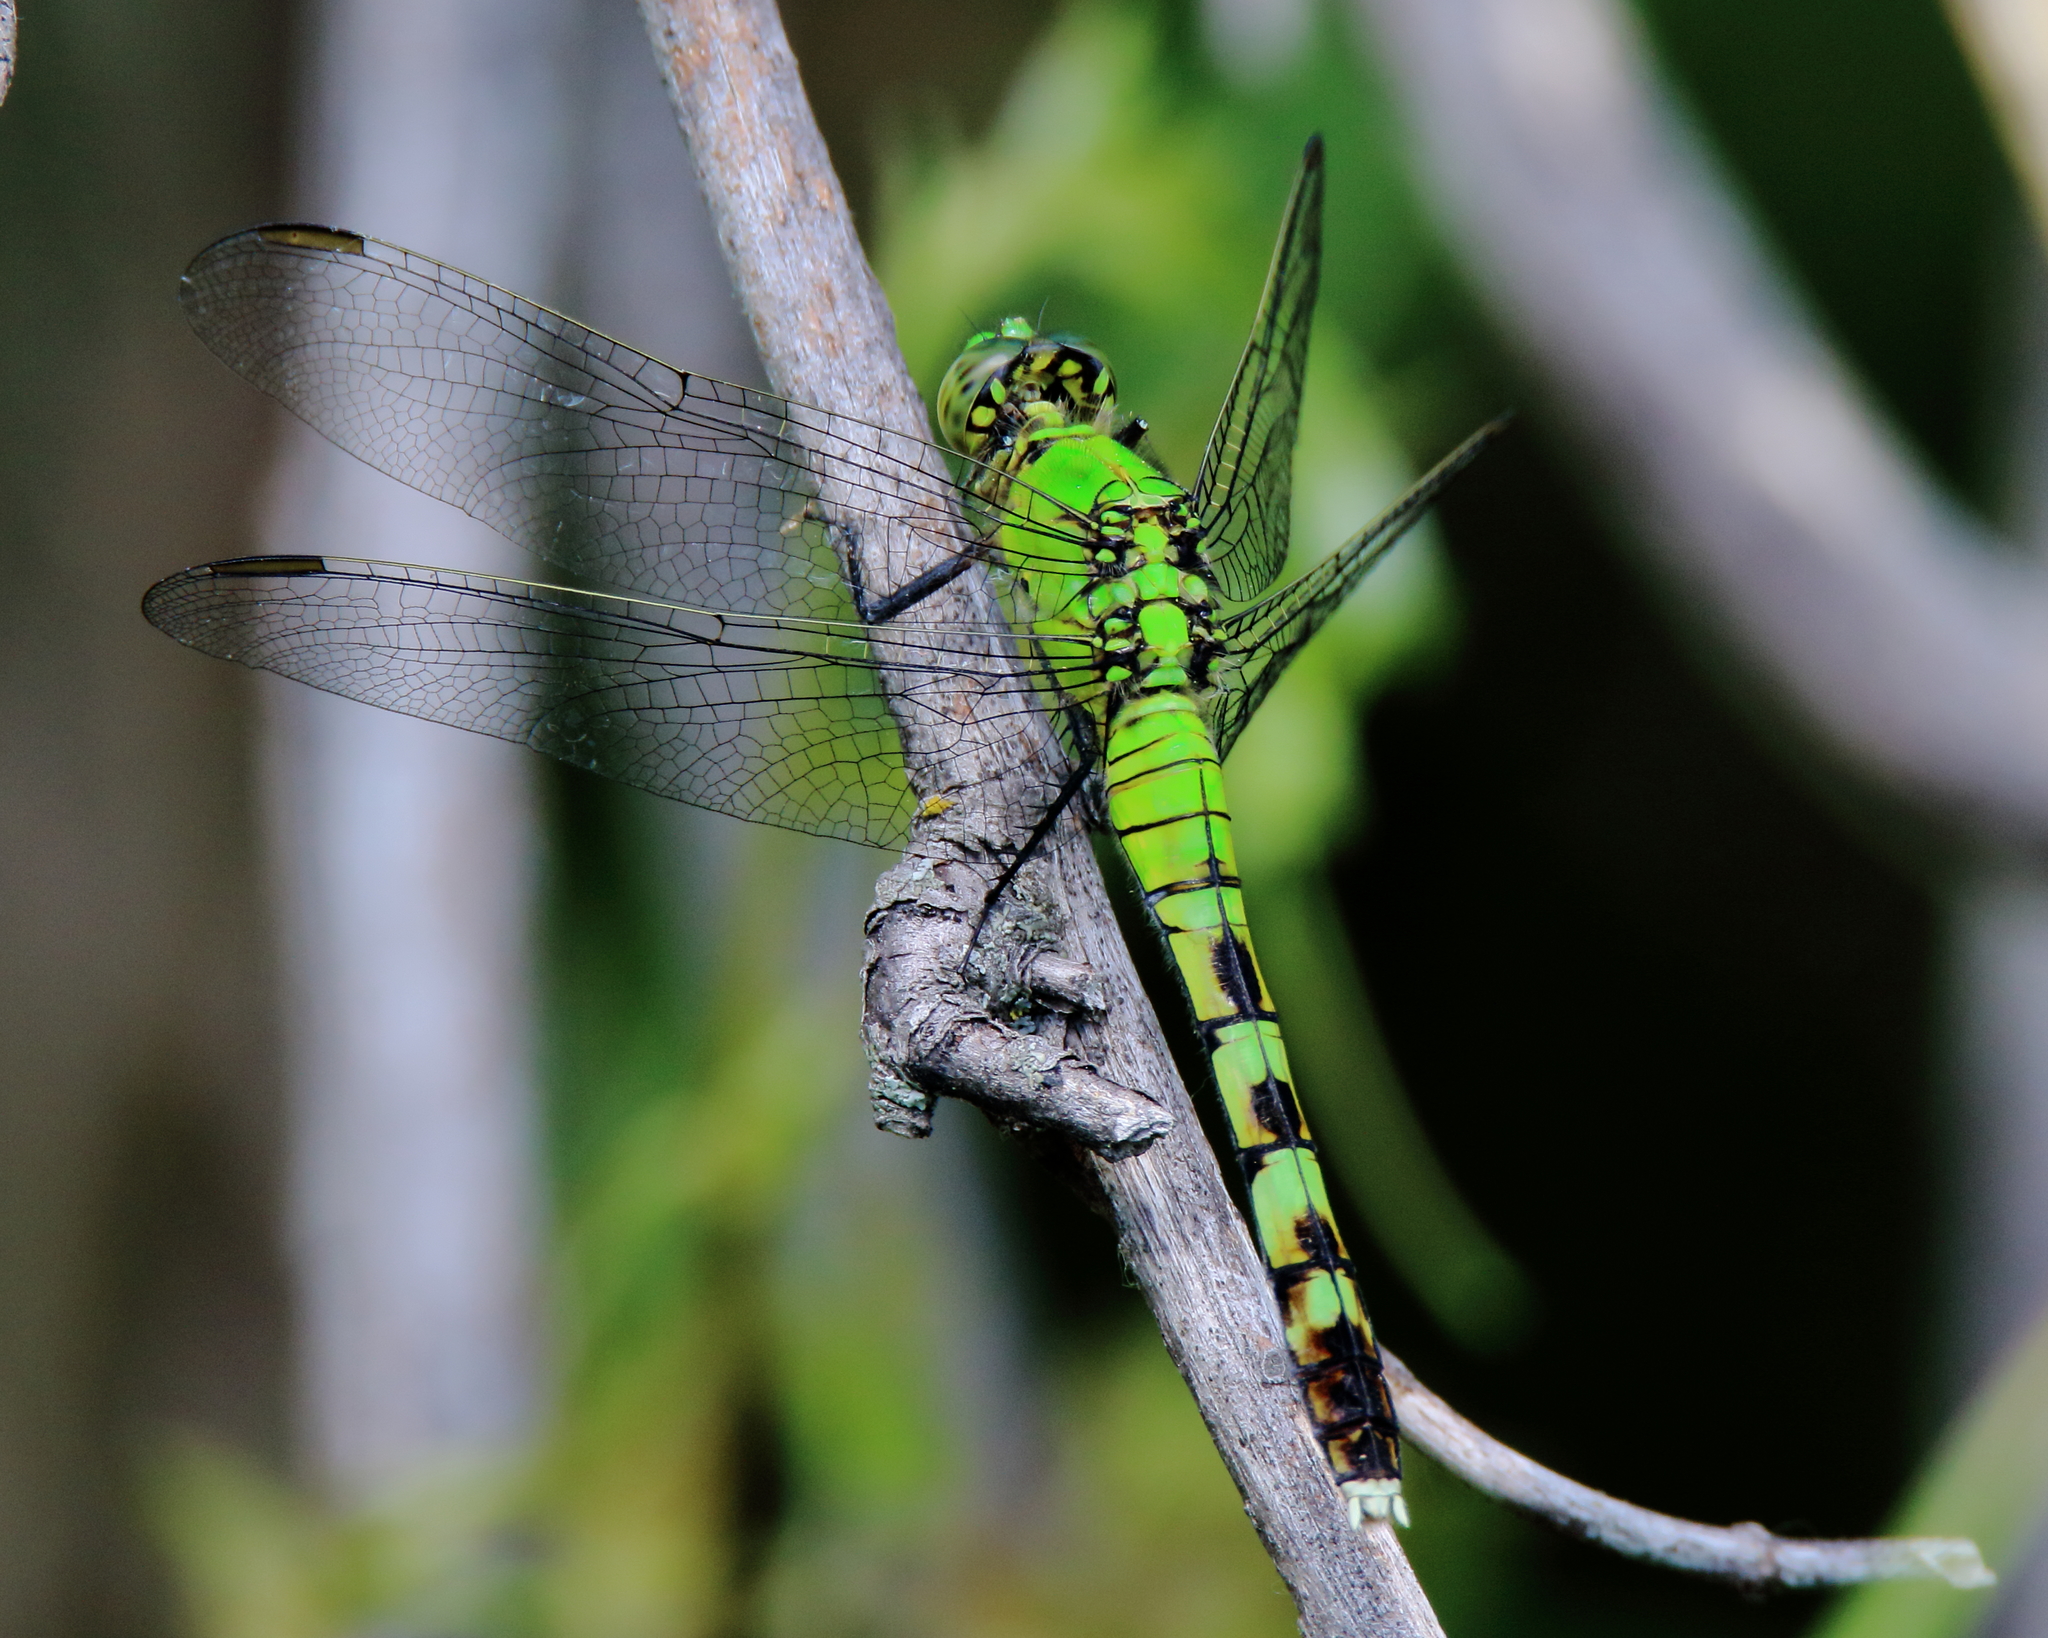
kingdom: Animalia
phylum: Arthropoda
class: Insecta
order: Odonata
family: Libellulidae
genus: Erythemis
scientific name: Erythemis simplicicollis
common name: Eastern pondhawk
